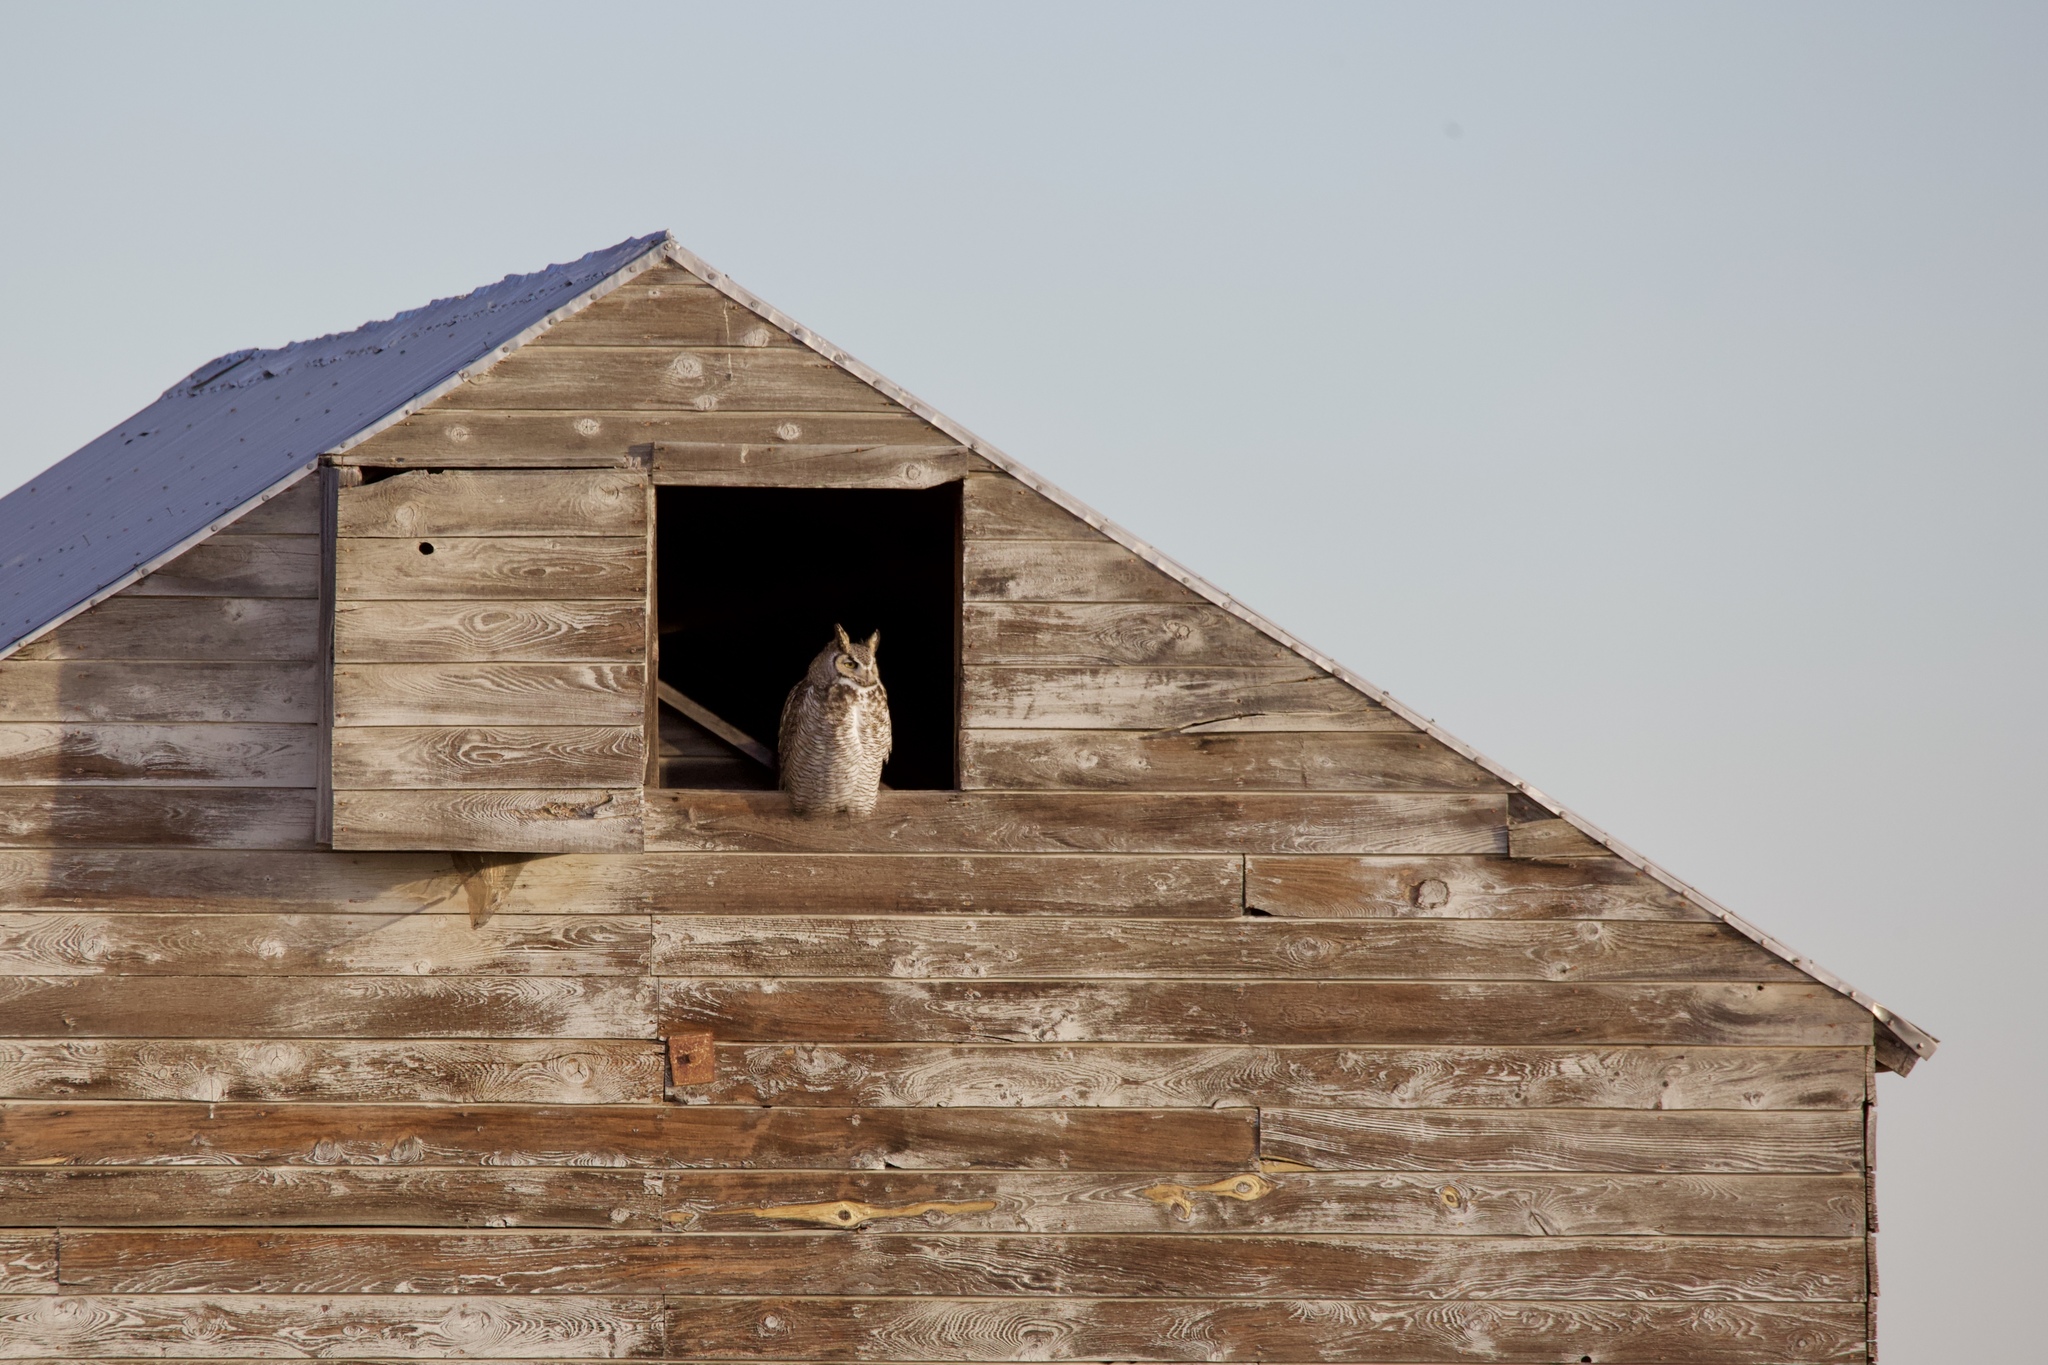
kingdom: Animalia
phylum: Chordata
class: Aves
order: Strigiformes
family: Strigidae
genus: Bubo
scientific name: Bubo virginianus
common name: Great horned owl
